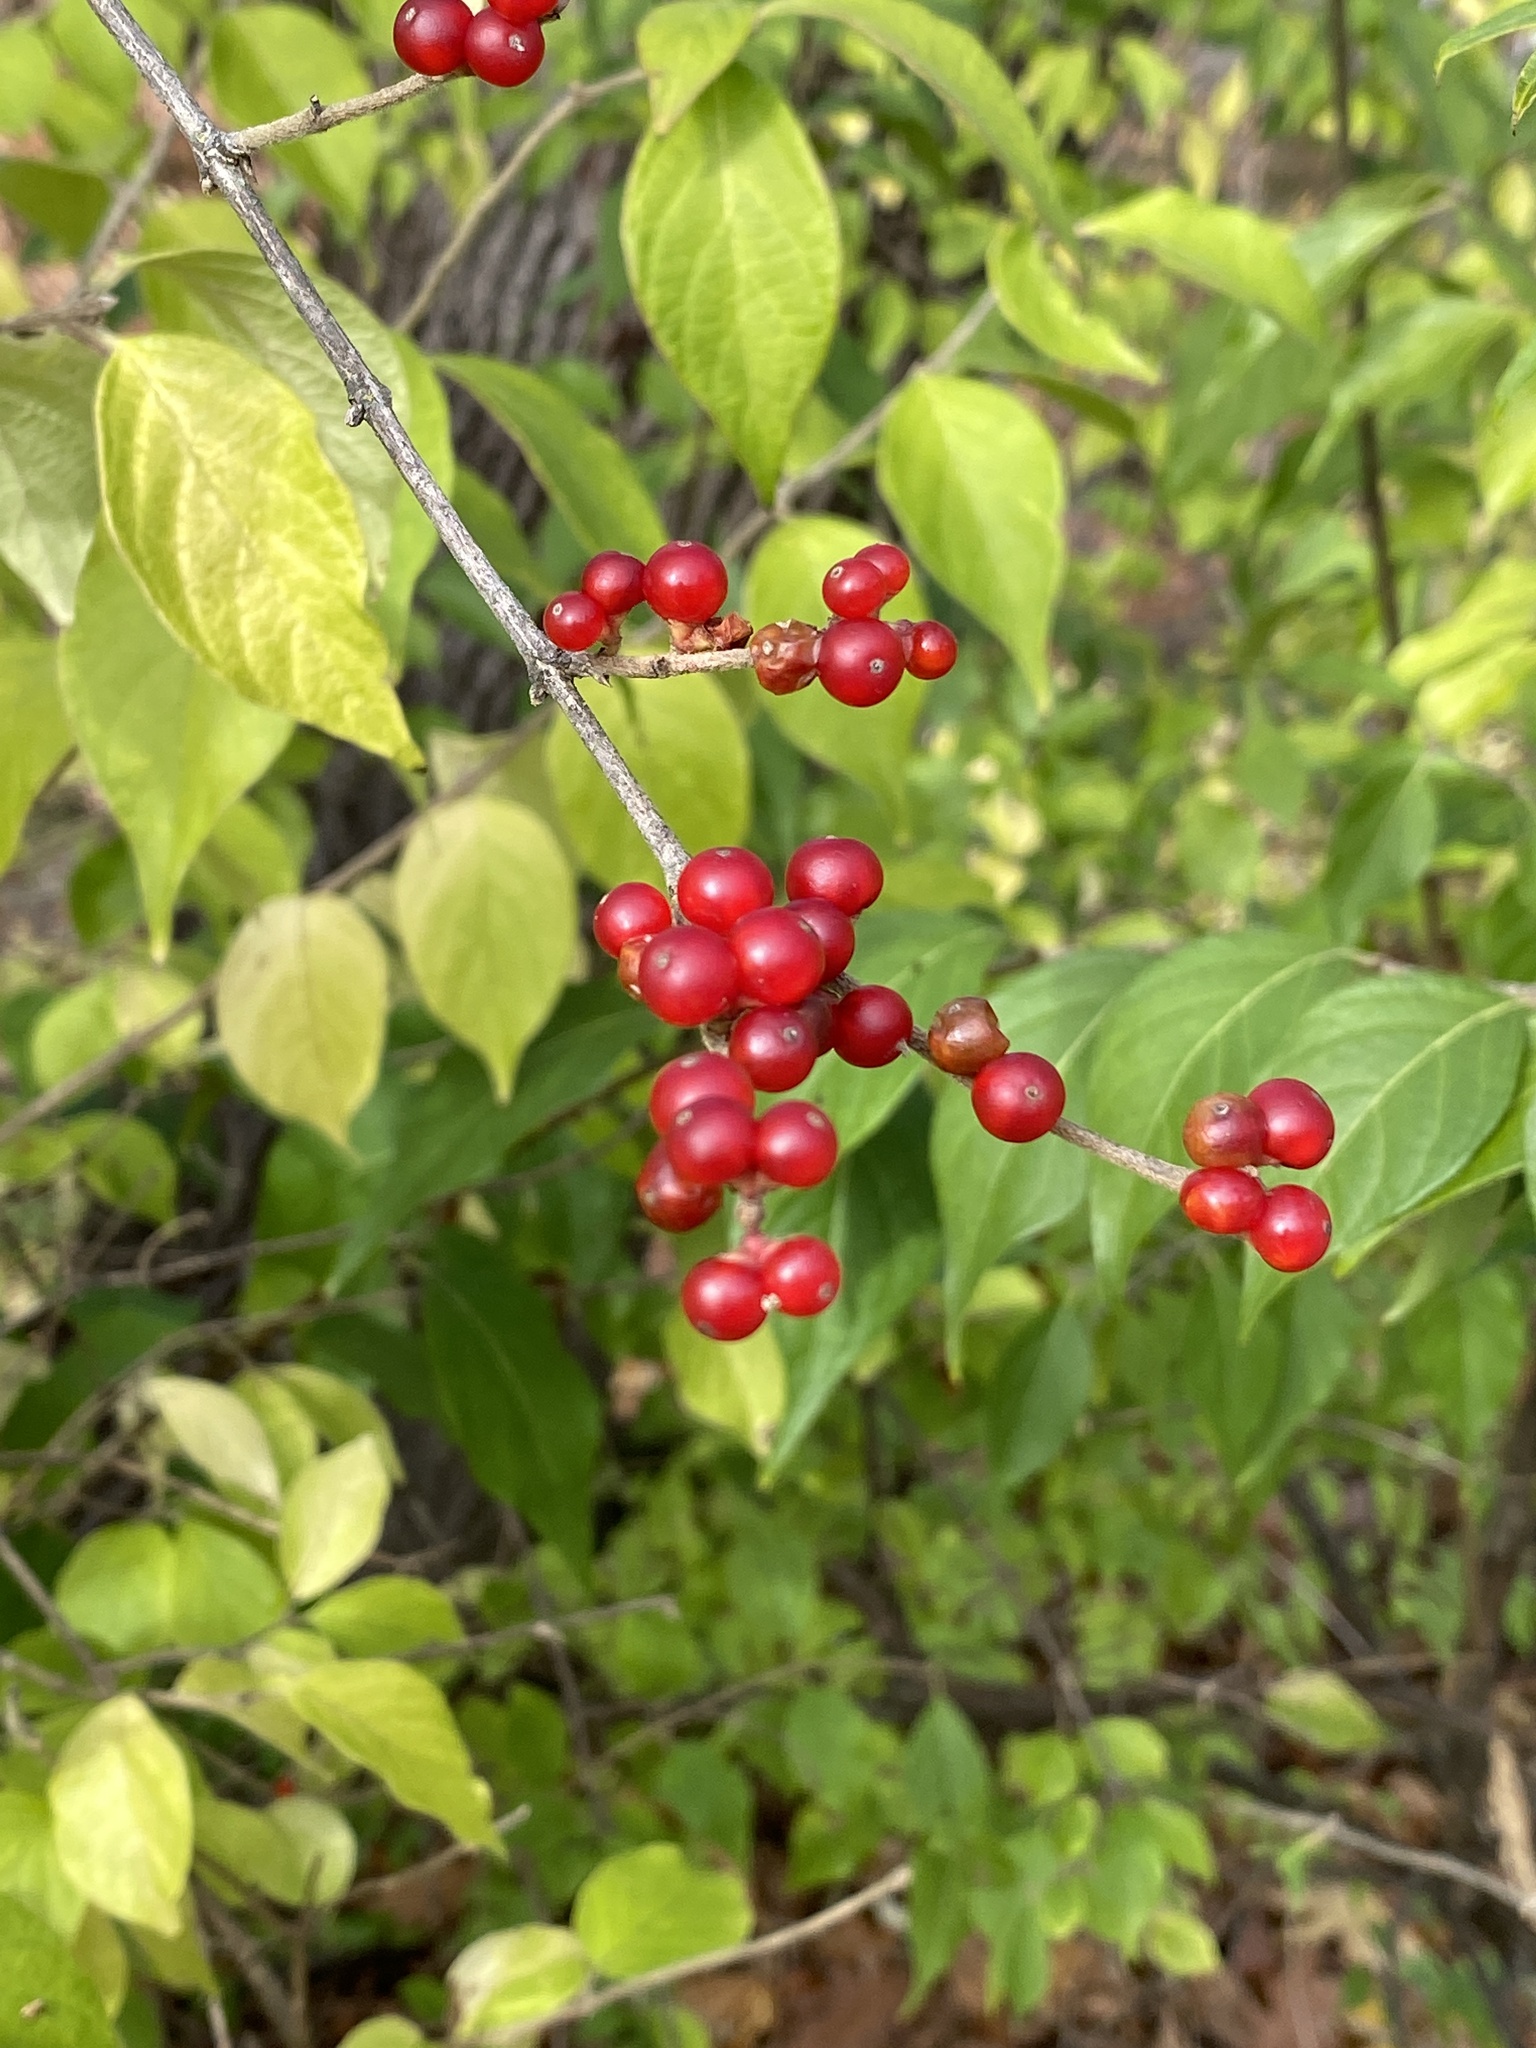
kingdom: Plantae
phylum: Tracheophyta
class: Magnoliopsida
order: Dipsacales
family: Caprifoliaceae
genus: Lonicera
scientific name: Lonicera maackii
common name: Amur honeysuckle
